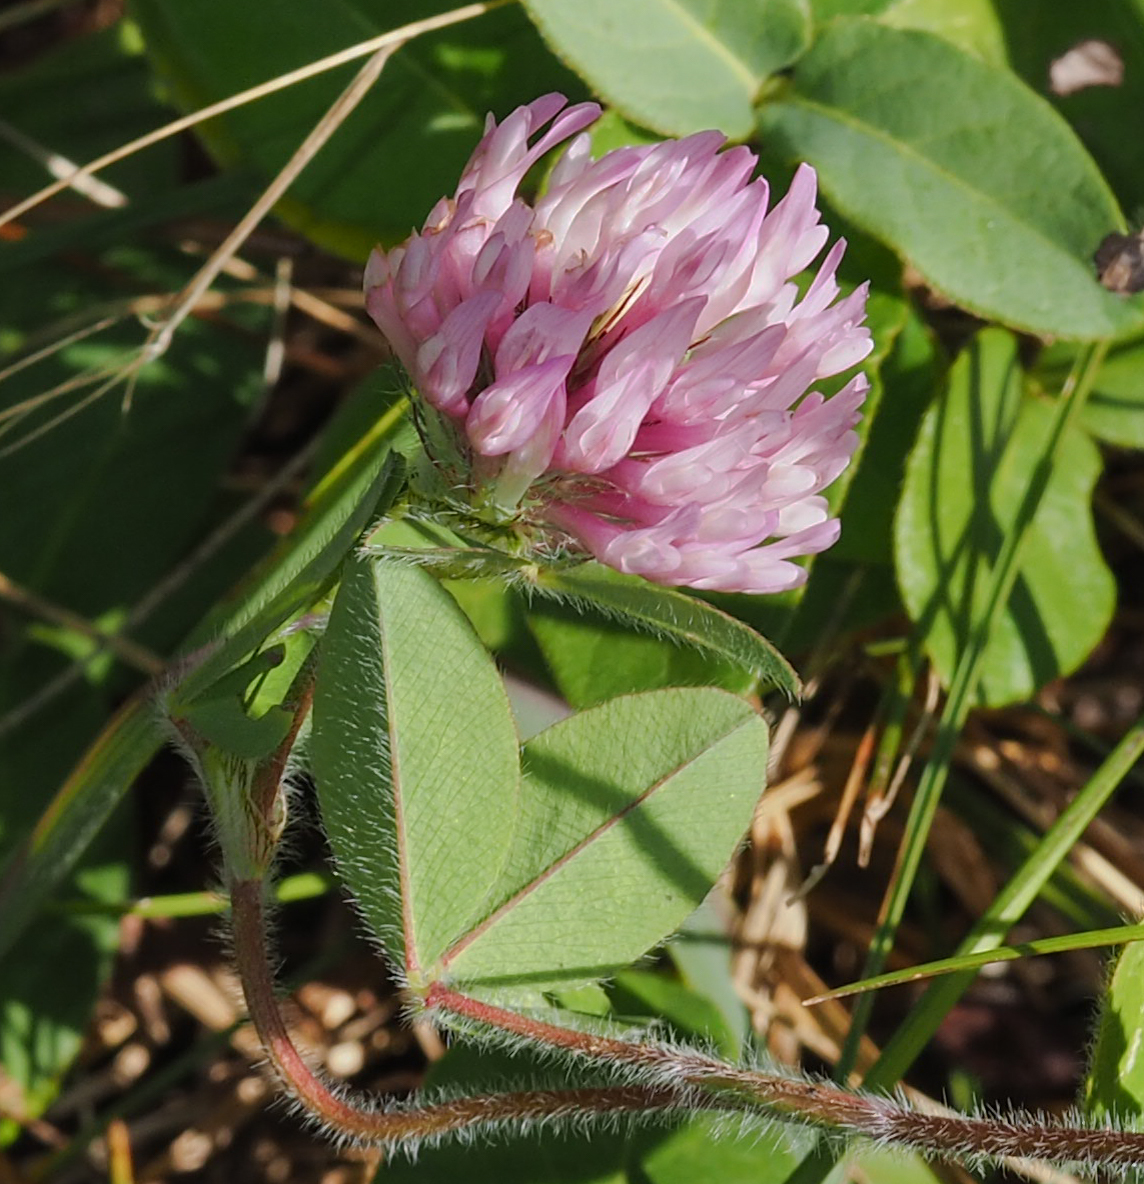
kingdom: Plantae
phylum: Tracheophyta
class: Magnoliopsida
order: Fabales
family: Fabaceae
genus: Trifolium
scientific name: Trifolium pratense
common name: Red clover
